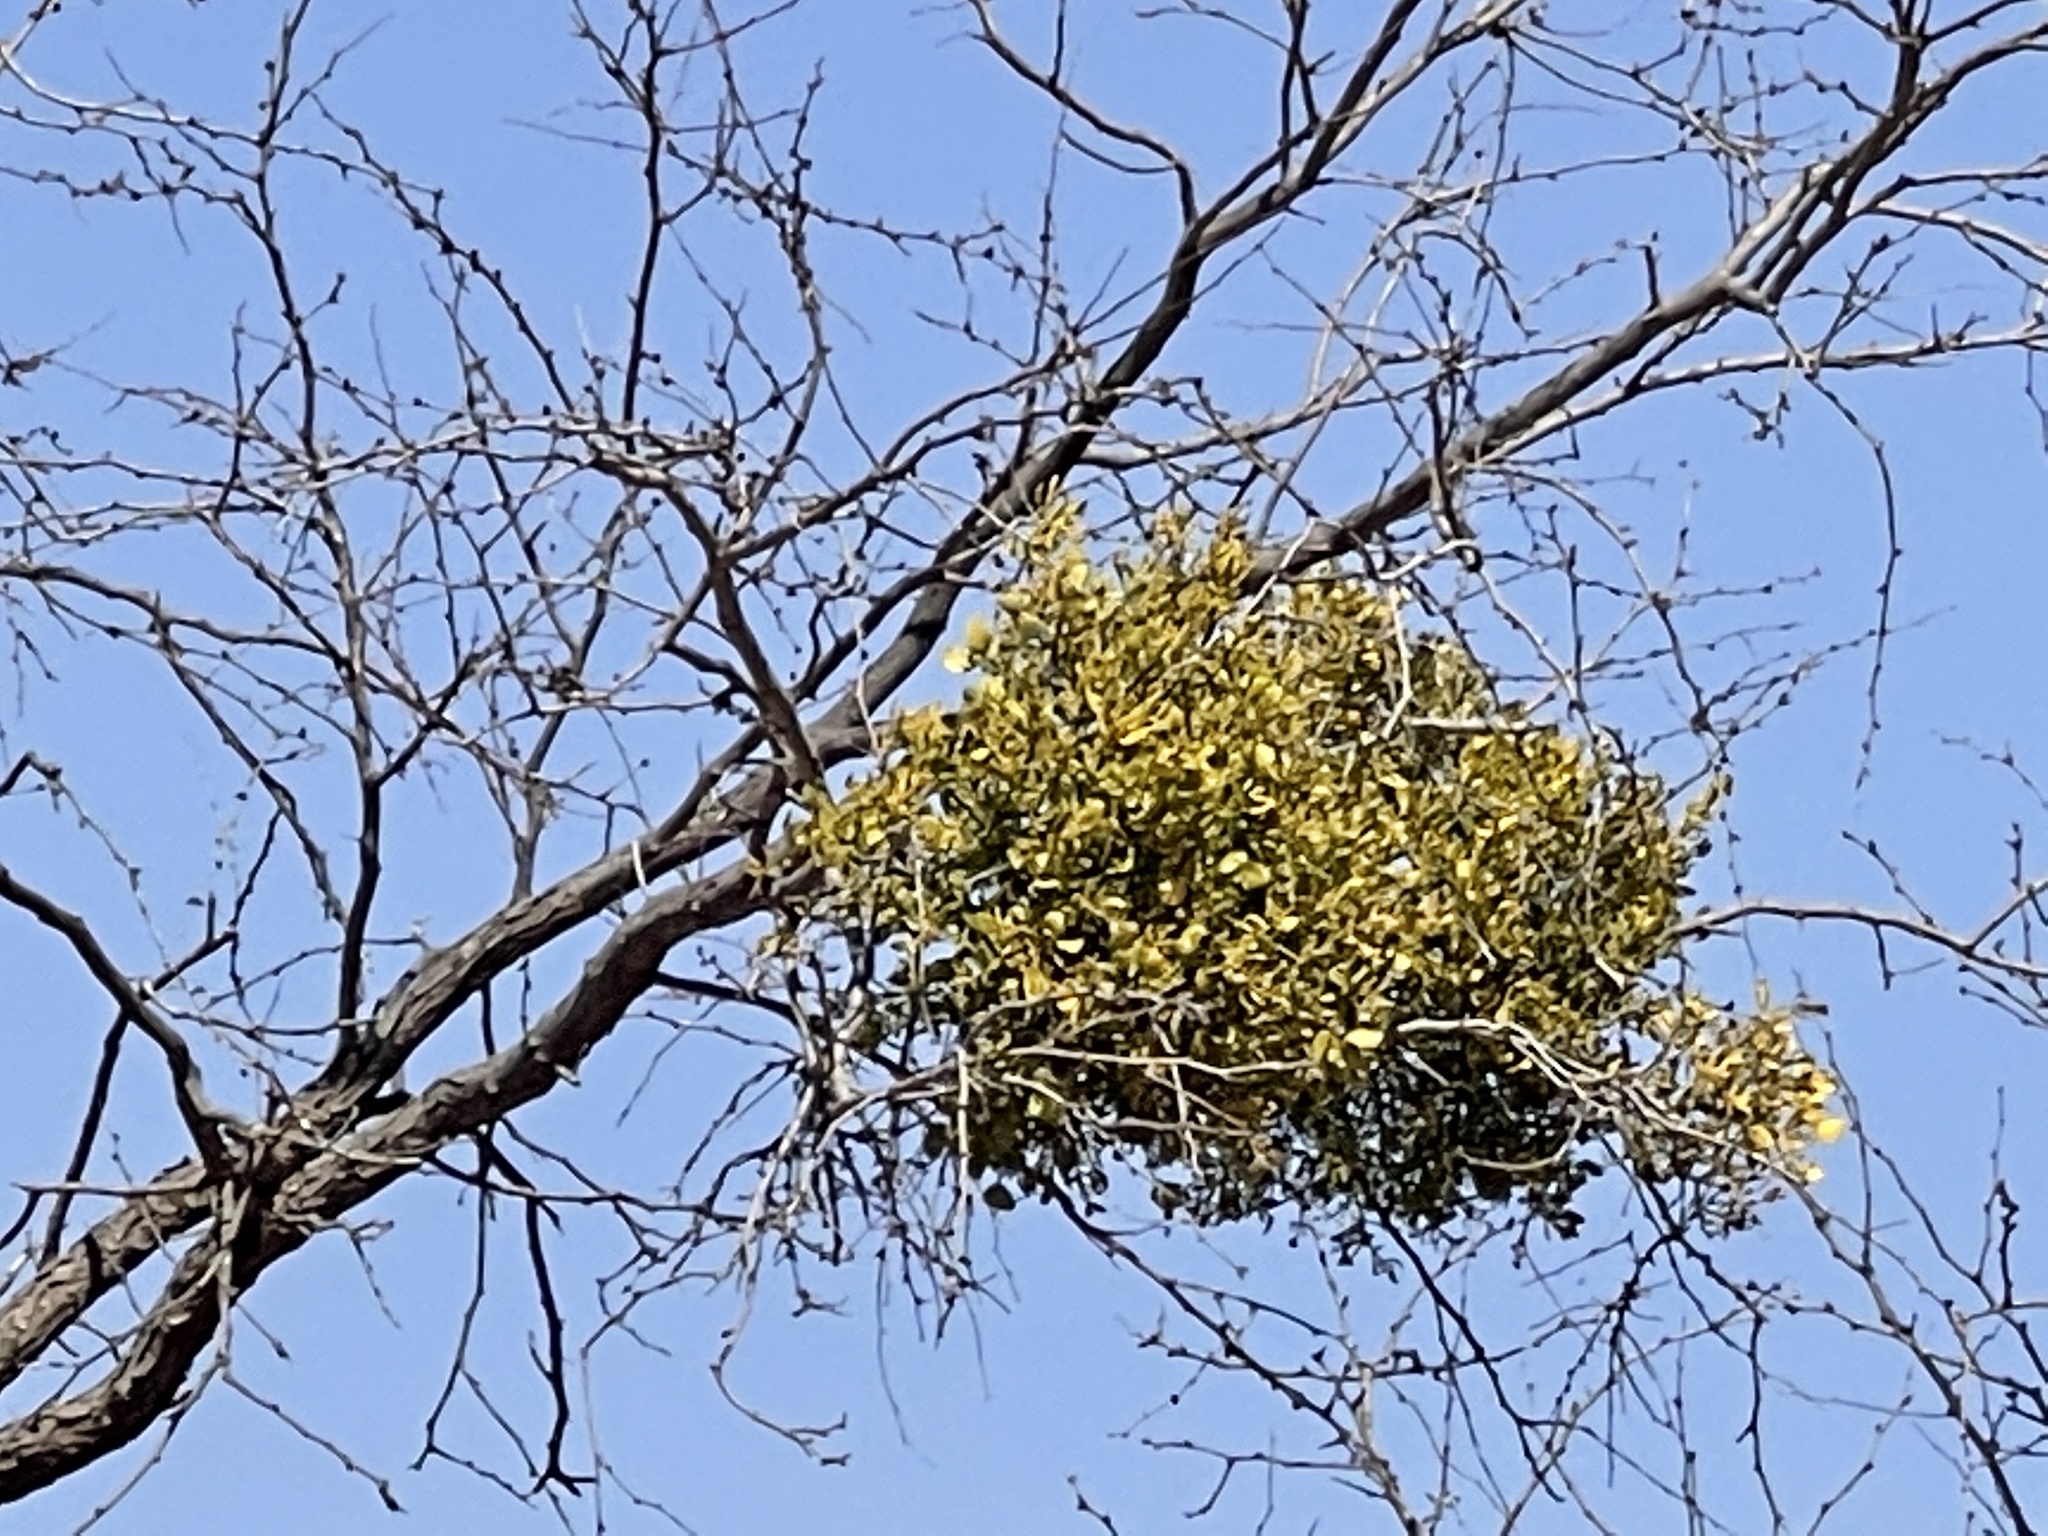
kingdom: Plantae
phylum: Tracheophyta
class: Magnoliopsida
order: Santalales
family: Viscaceae
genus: Phoradendron
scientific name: Phoradendron leucarpum
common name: Pacific mistletoe
